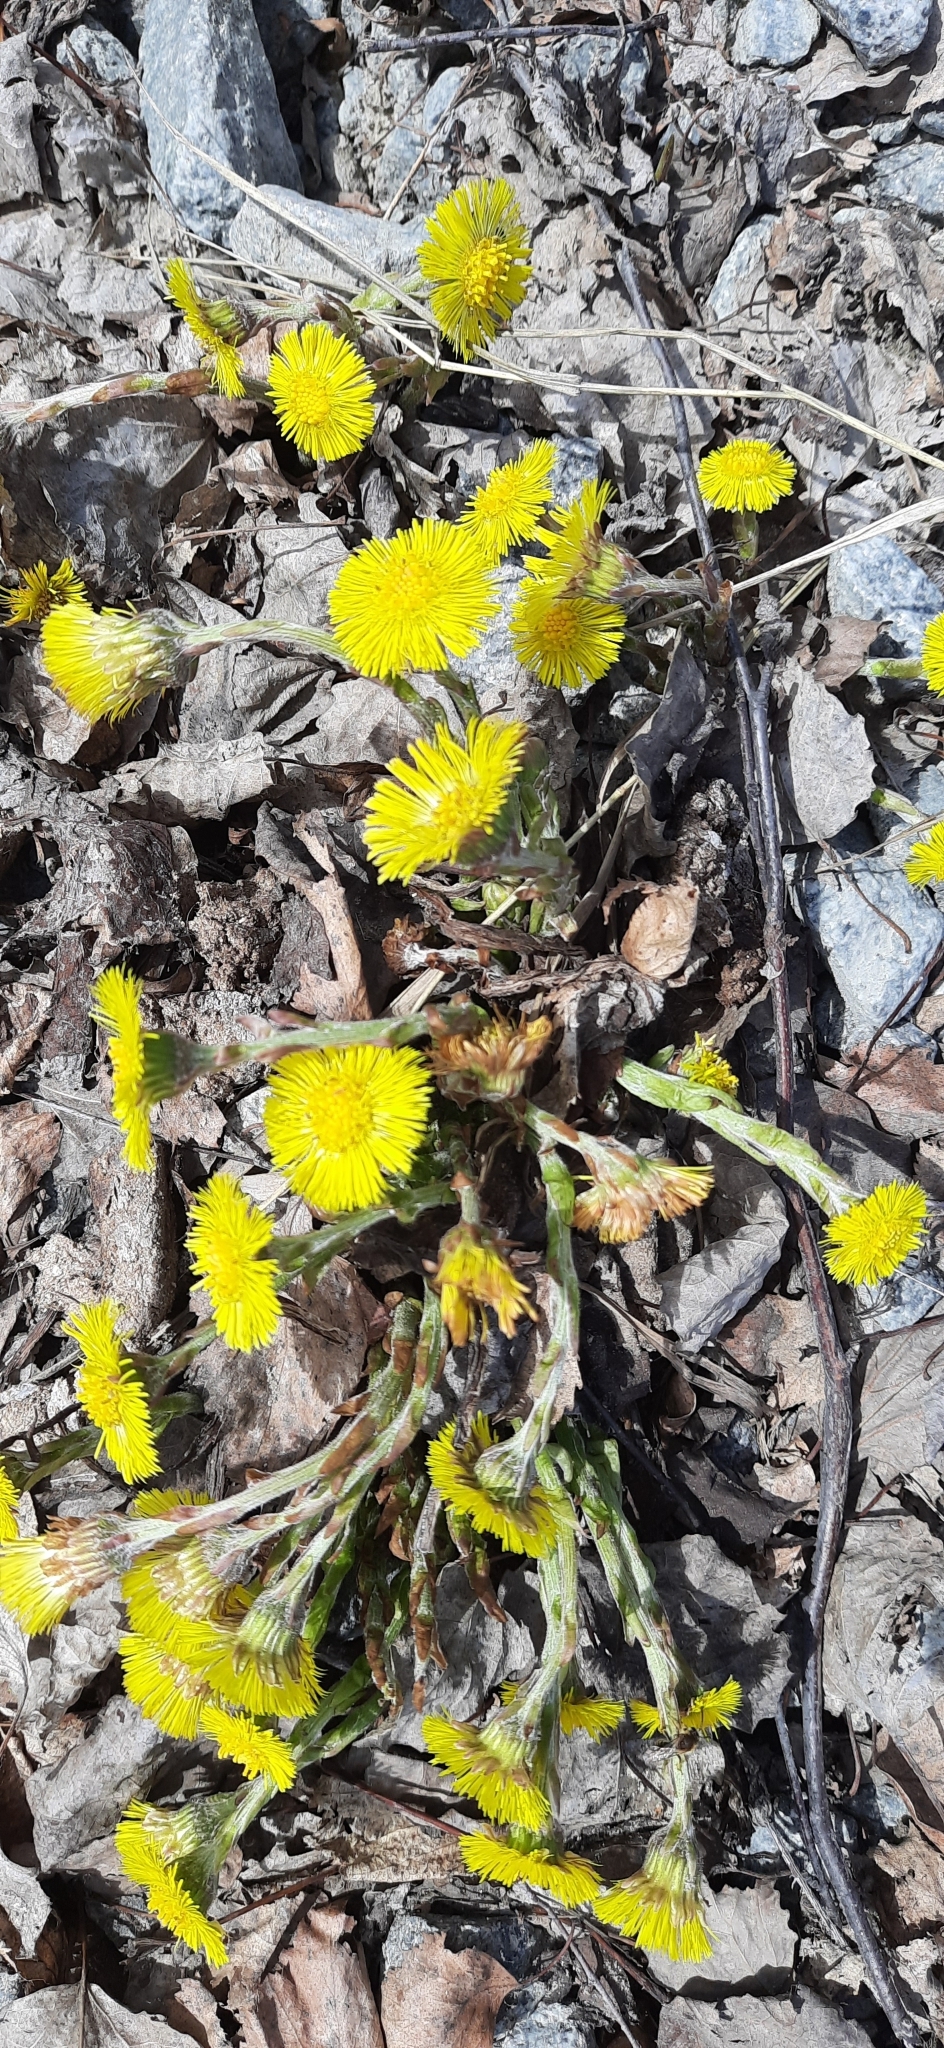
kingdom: Plantae
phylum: Tracheophyta
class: Magnoliopsida
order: Asterales
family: Asteraceae
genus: Tussilago
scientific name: Tussilago farfara
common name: Coltsfoot
